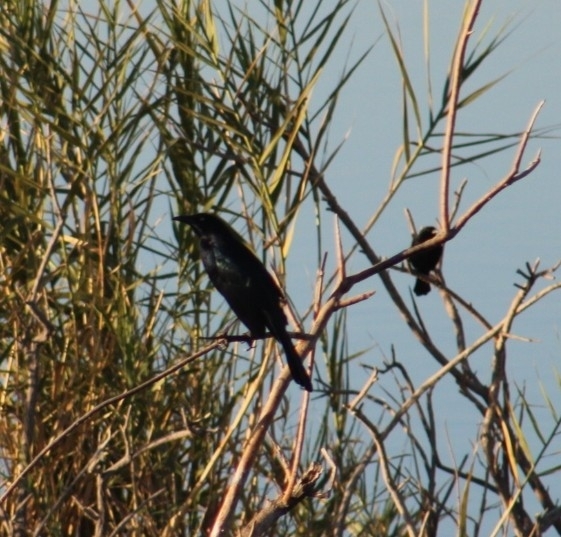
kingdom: Animalia
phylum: Chordata
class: Aves
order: Passeriformes
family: Icteridae
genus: Quiscalus
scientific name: Quiscalus mexicanus
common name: Great-tailed grackle
